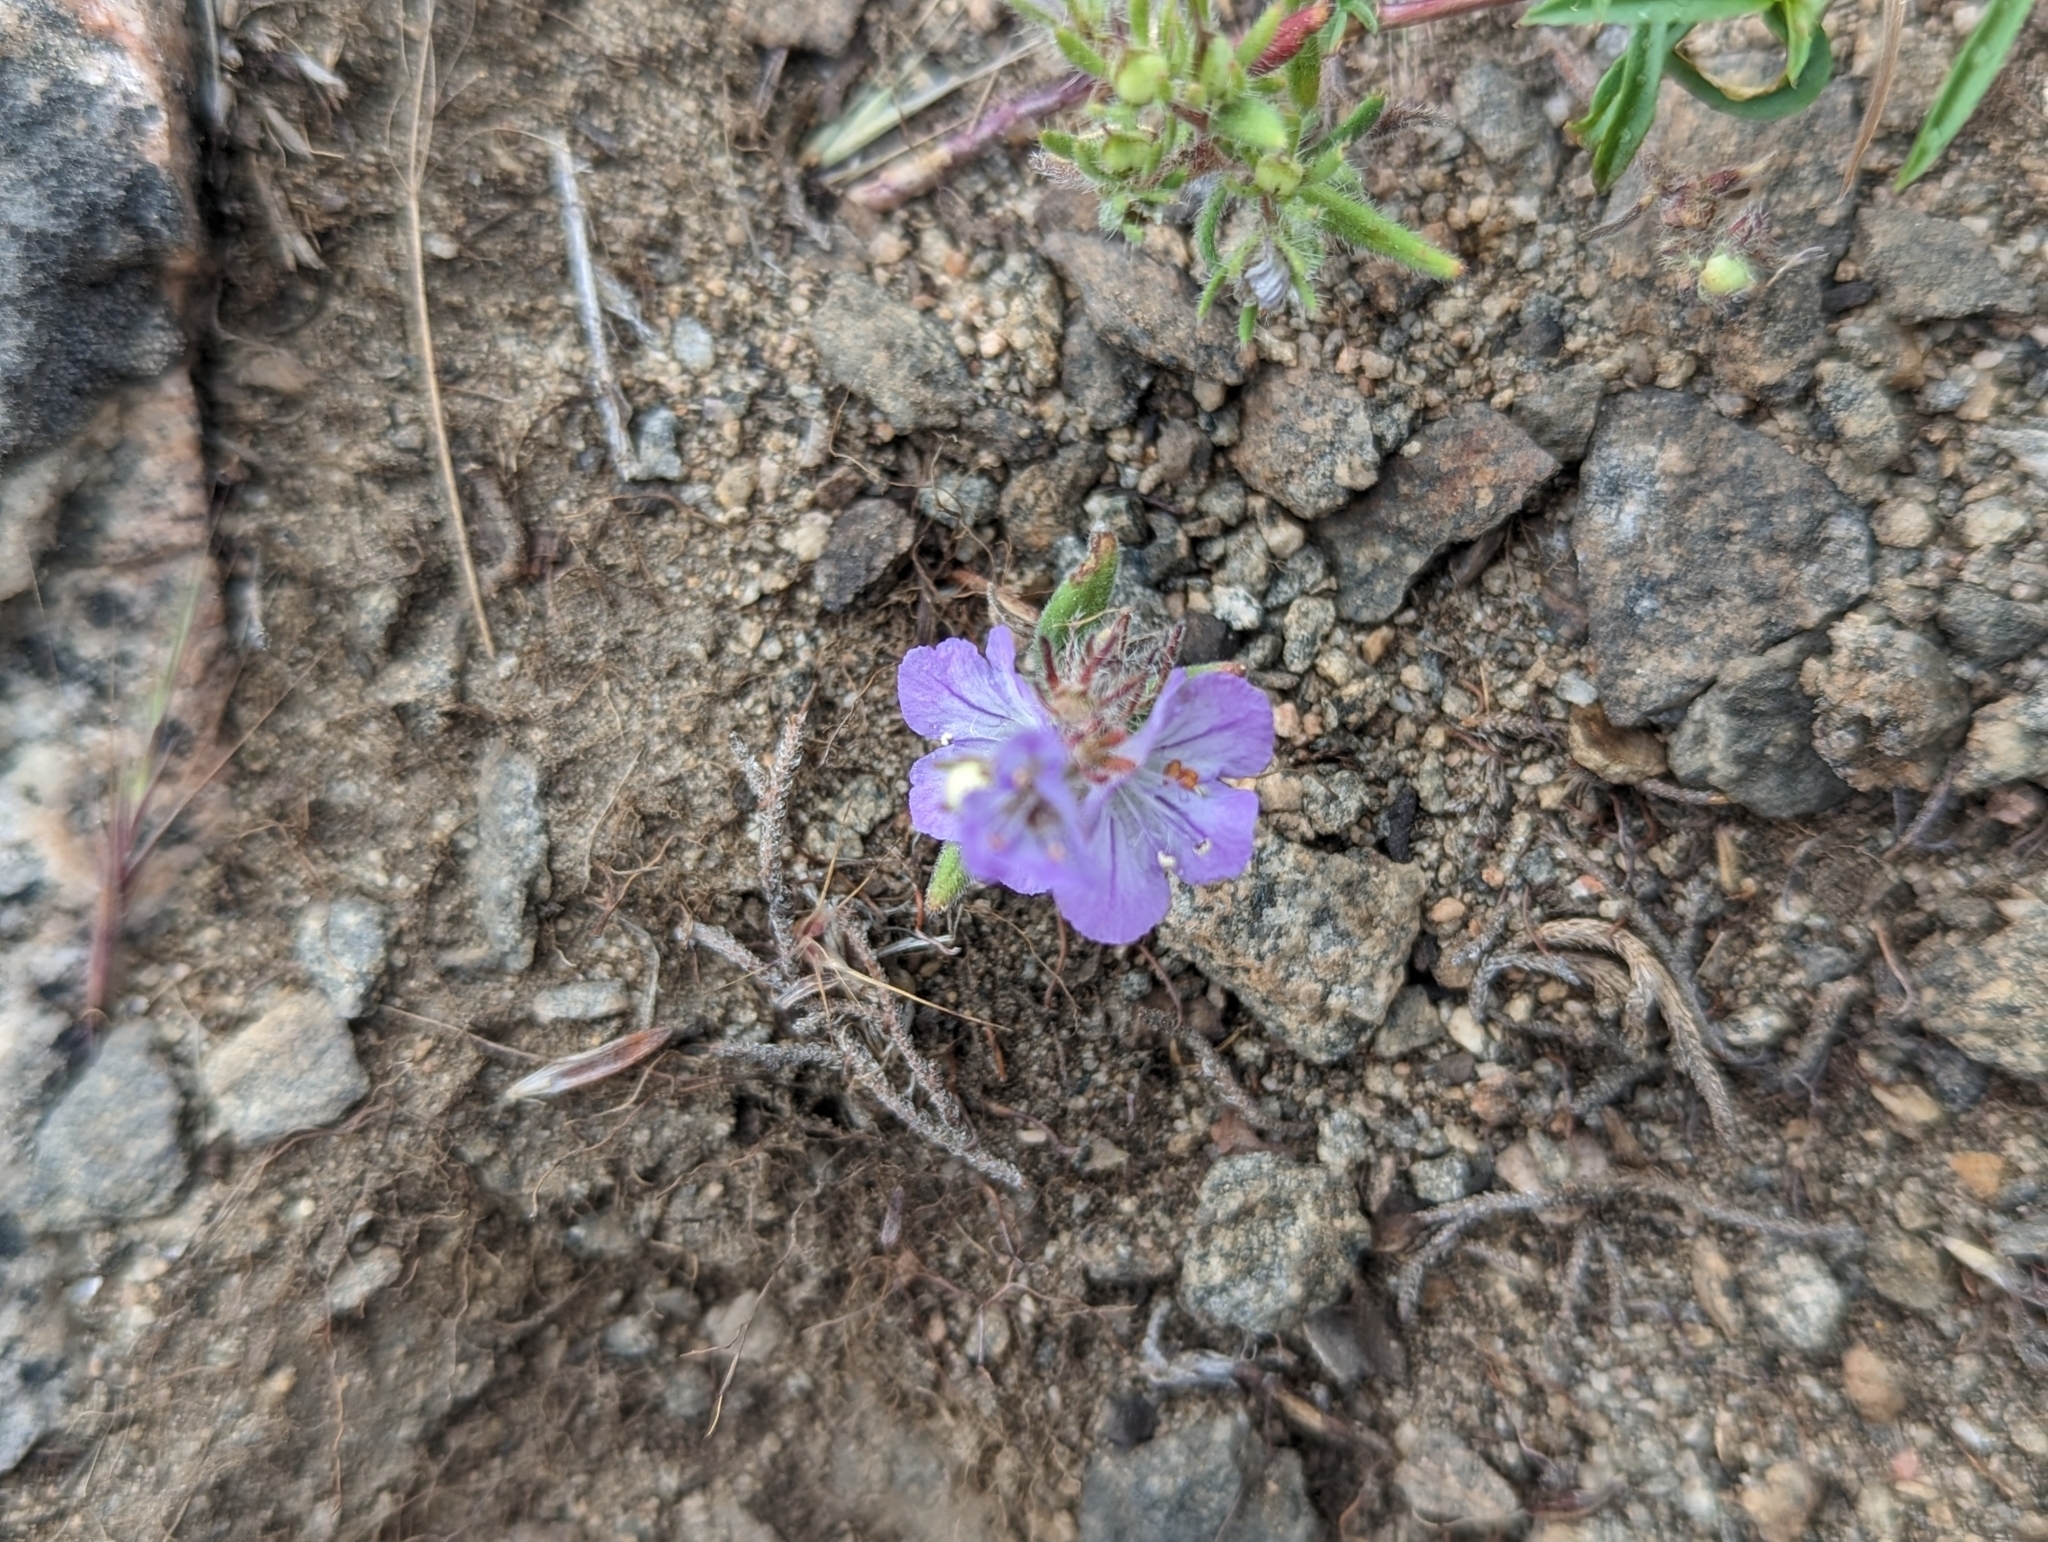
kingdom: Plantae
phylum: Tracheophyta
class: Magnoliopsida
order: Boraginales
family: Hydrophyllaceae
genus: Phacelia
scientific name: Phacelia linearis
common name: Linear-leaved phacelia
